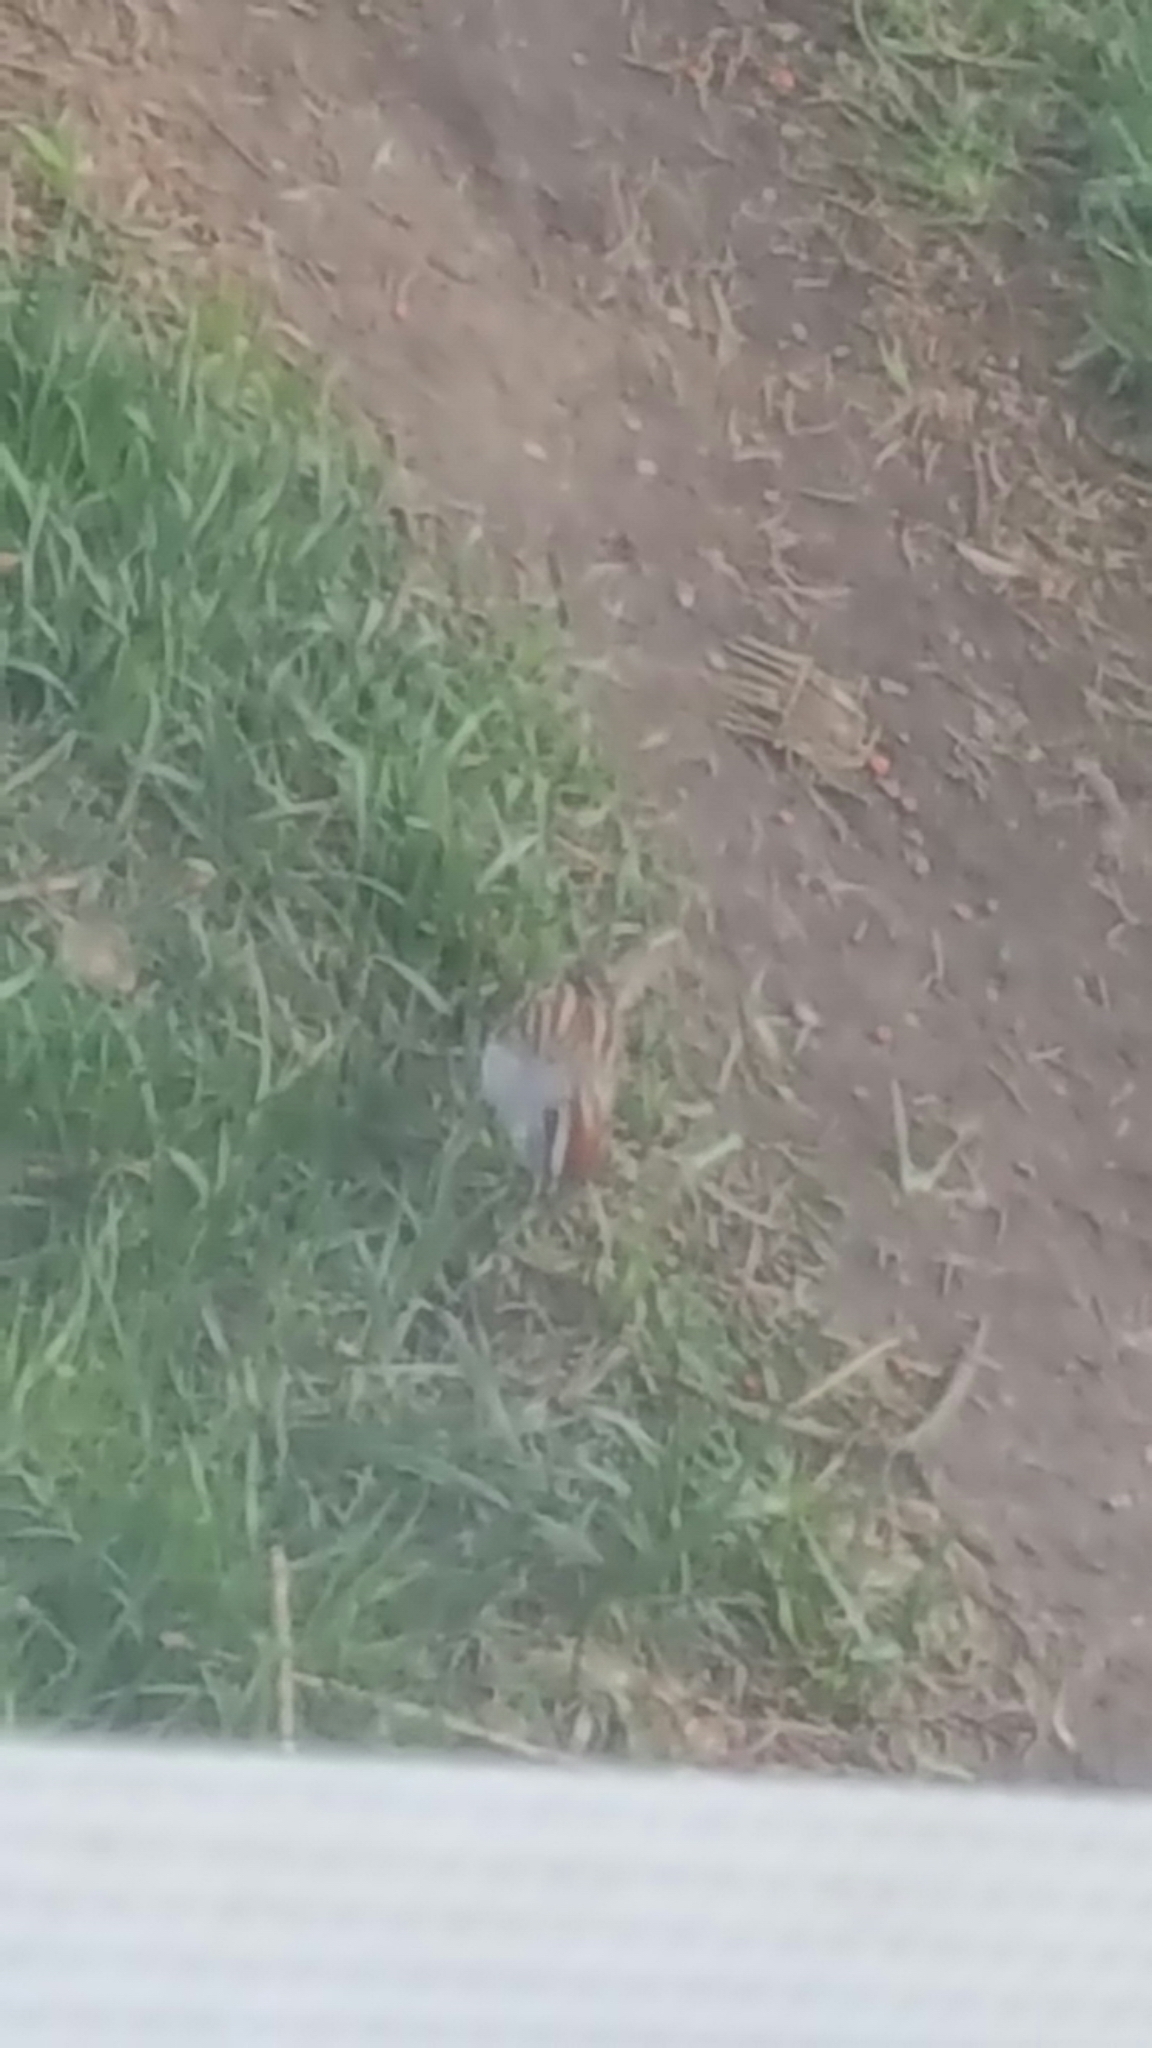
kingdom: Animalia
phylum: Chordata
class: Aves
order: Passeriformes
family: Passerellidae
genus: Spizella
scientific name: Spizella passerina
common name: Chipping sparrow
